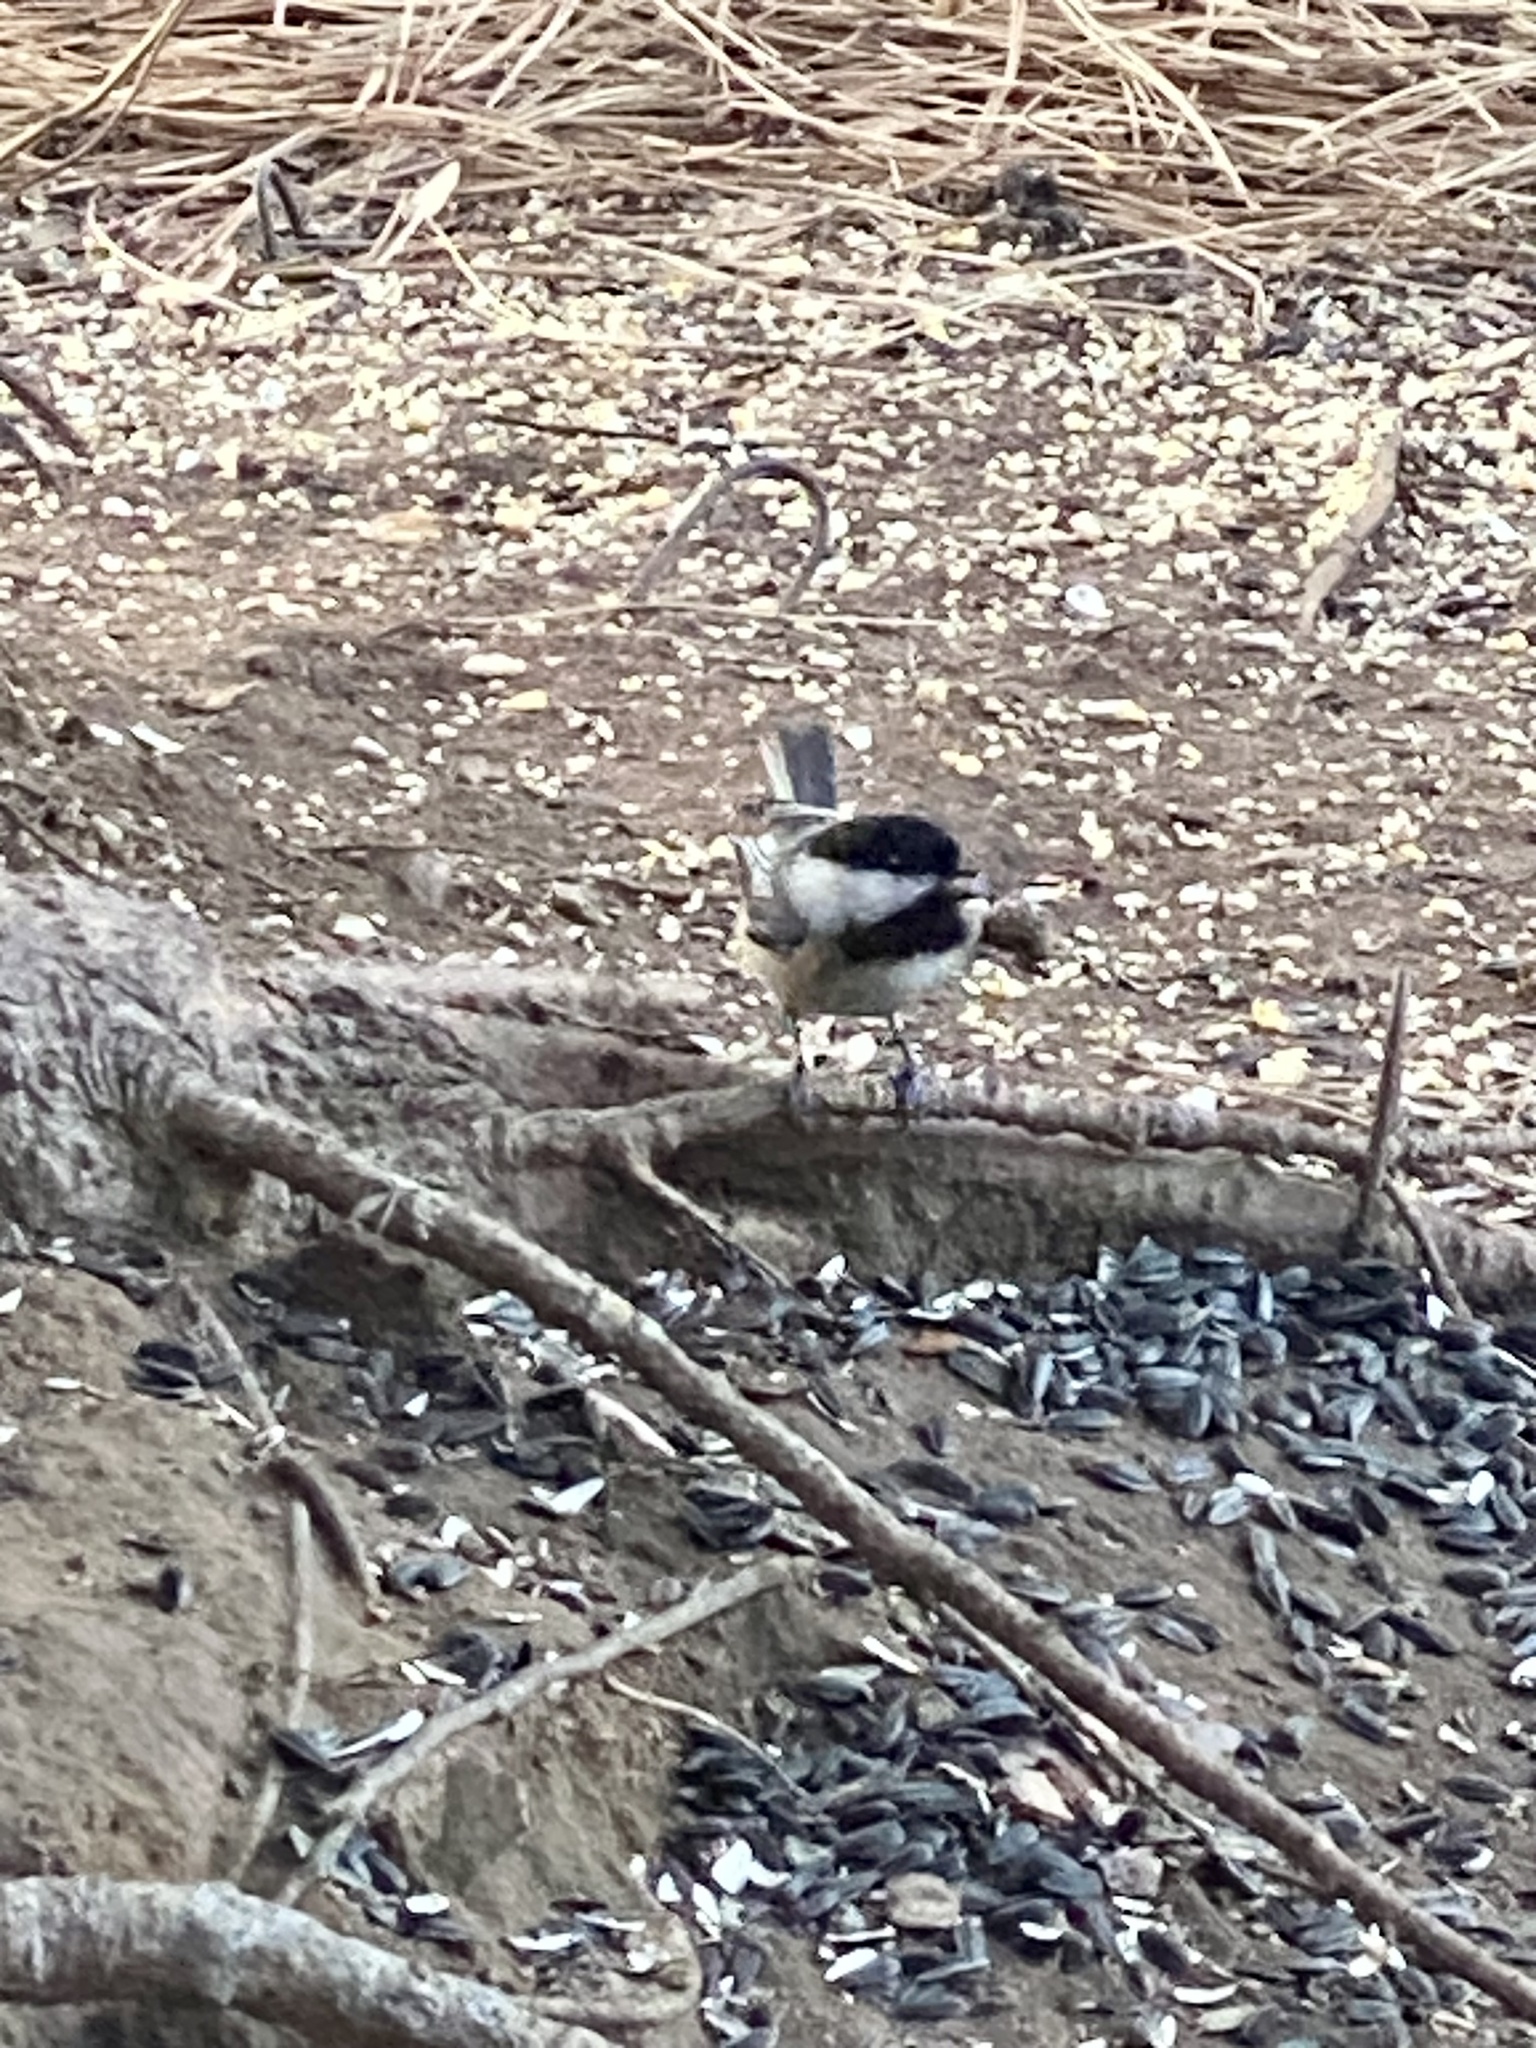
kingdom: Animalia
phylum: Chordata
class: Aves
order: Passeriformes
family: Paridae
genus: Poecile
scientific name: Poecile atricapillus
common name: Black-capped chickadee
